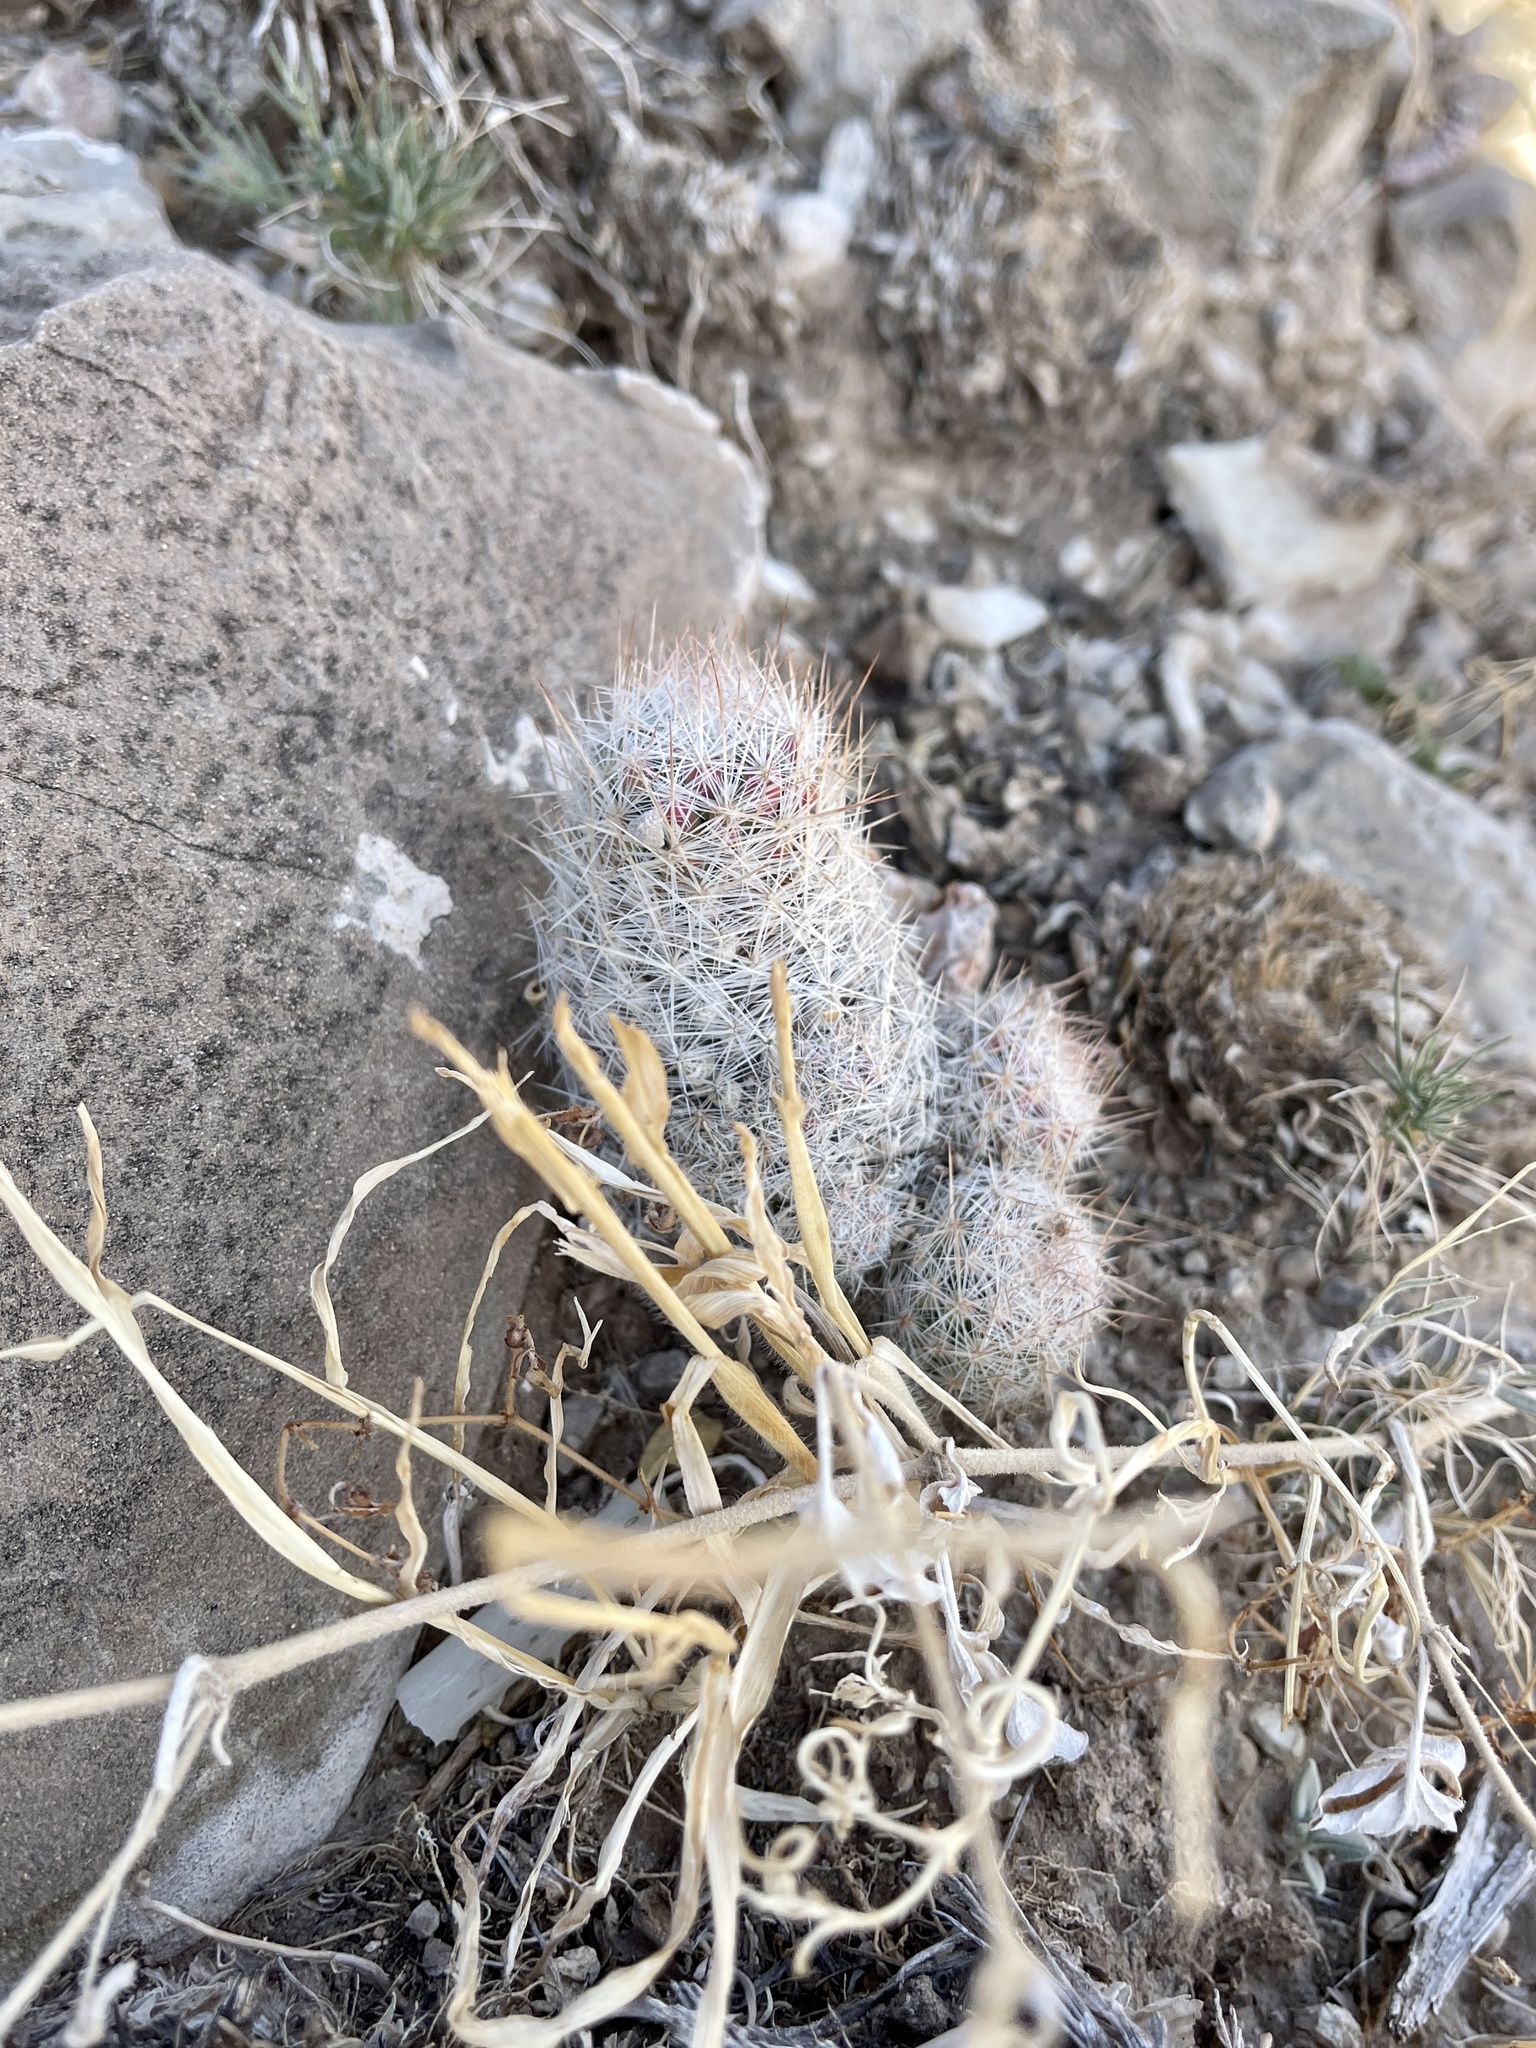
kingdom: Plantae
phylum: Tracheophyta
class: Magnoliopsida
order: Caryophyllales
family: Cactaceae
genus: Pelecyphora
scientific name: Pelecyphora tuberculosa
